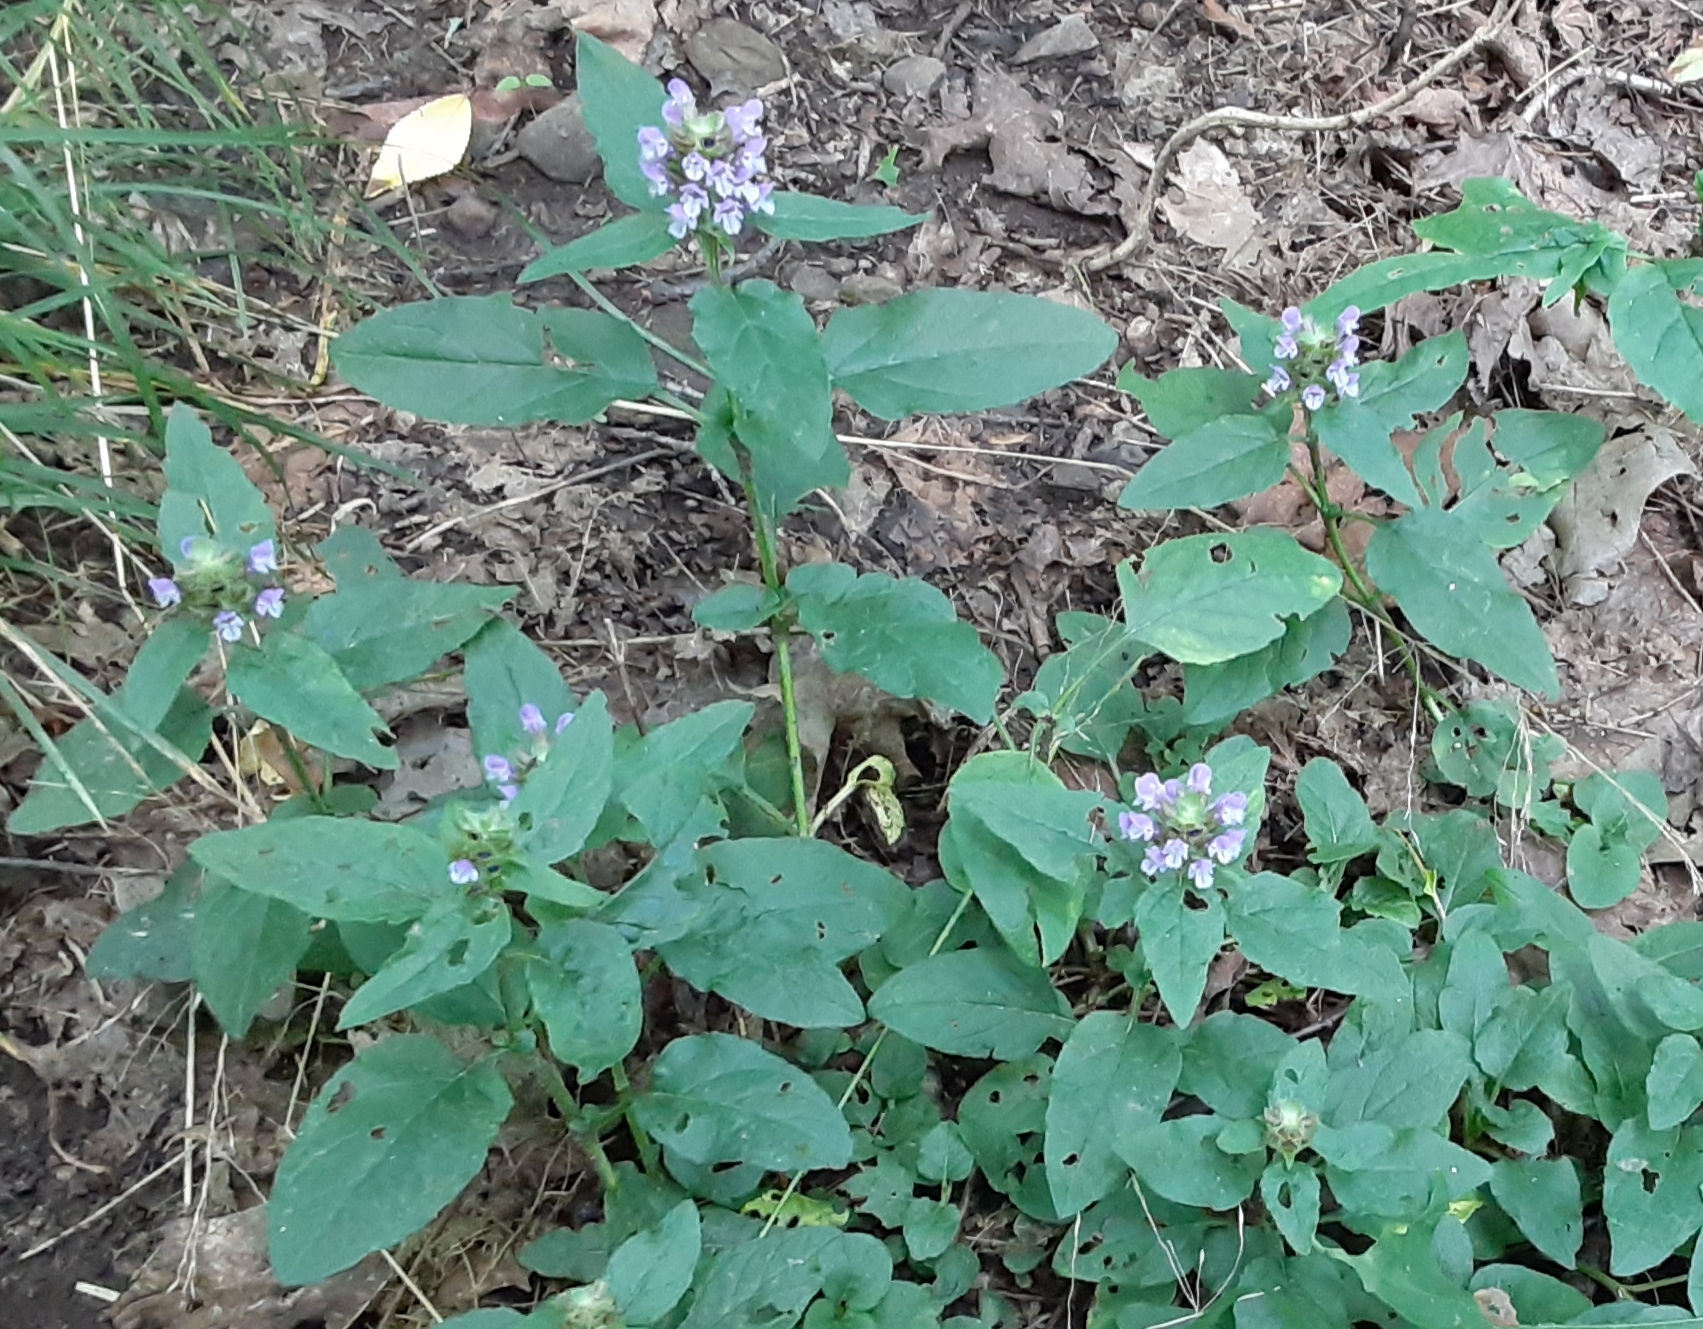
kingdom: Plantae
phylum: Tracheophyta
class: Magnoliopsida
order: Lamiales
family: Lamiaceae
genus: Prunella
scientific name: Prunella vulgaris
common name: Heal-all
